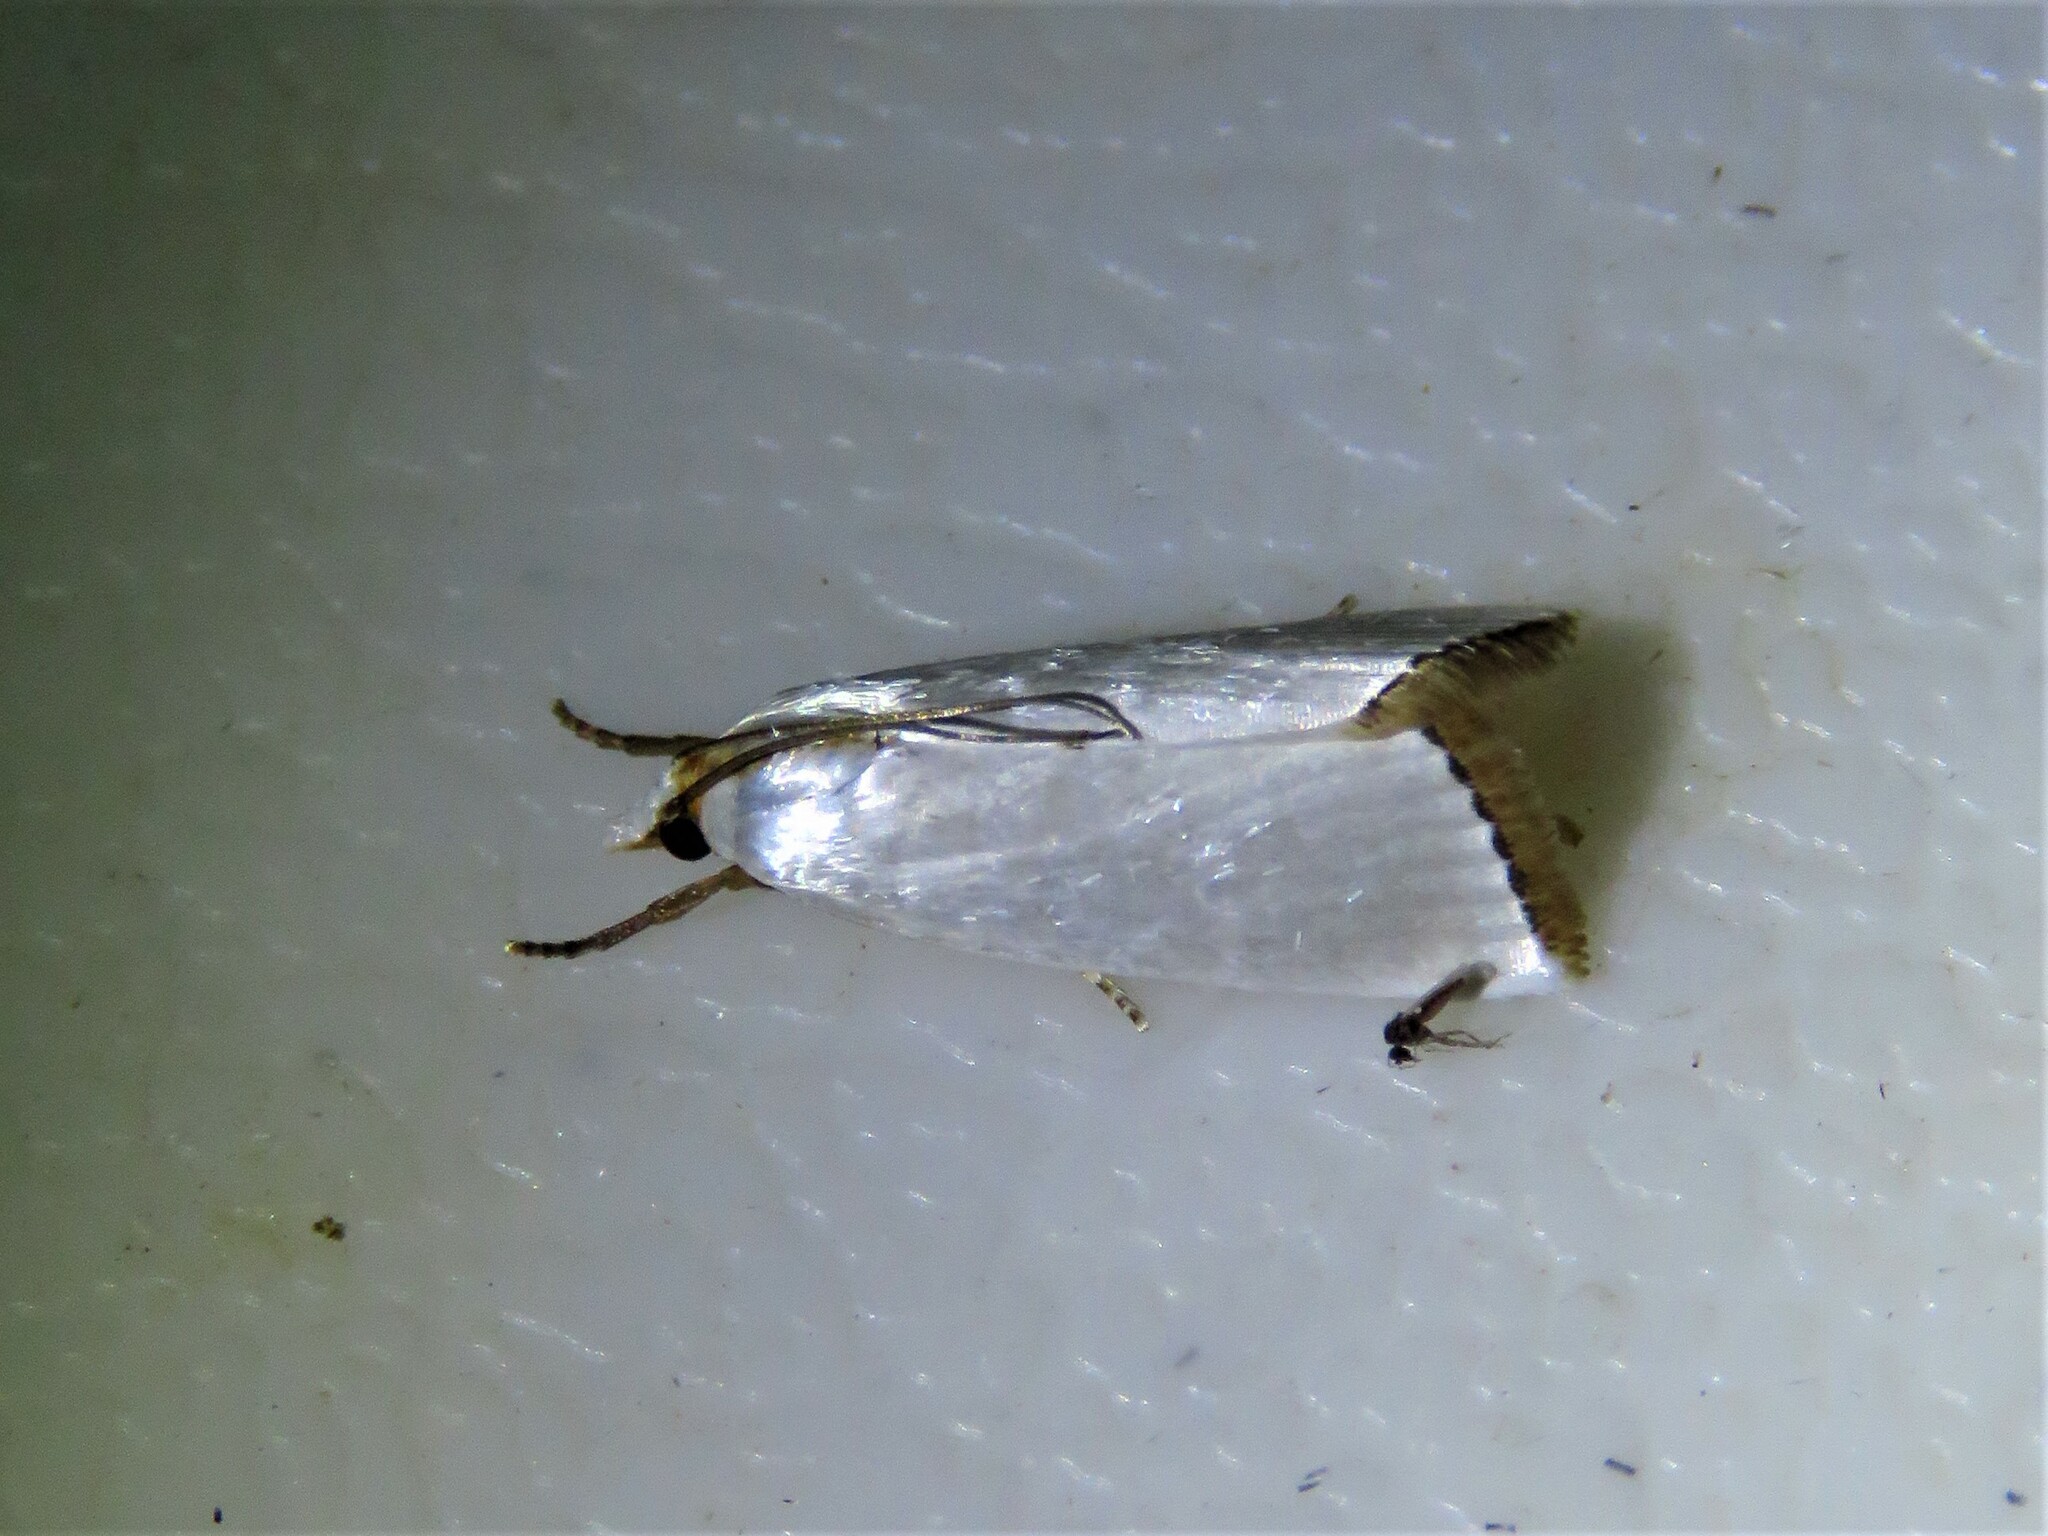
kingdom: Animalia
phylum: Arthropoda
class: Insecta
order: Lepidoptera
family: Crambidae
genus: Argyria
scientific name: Argyria nivalis
